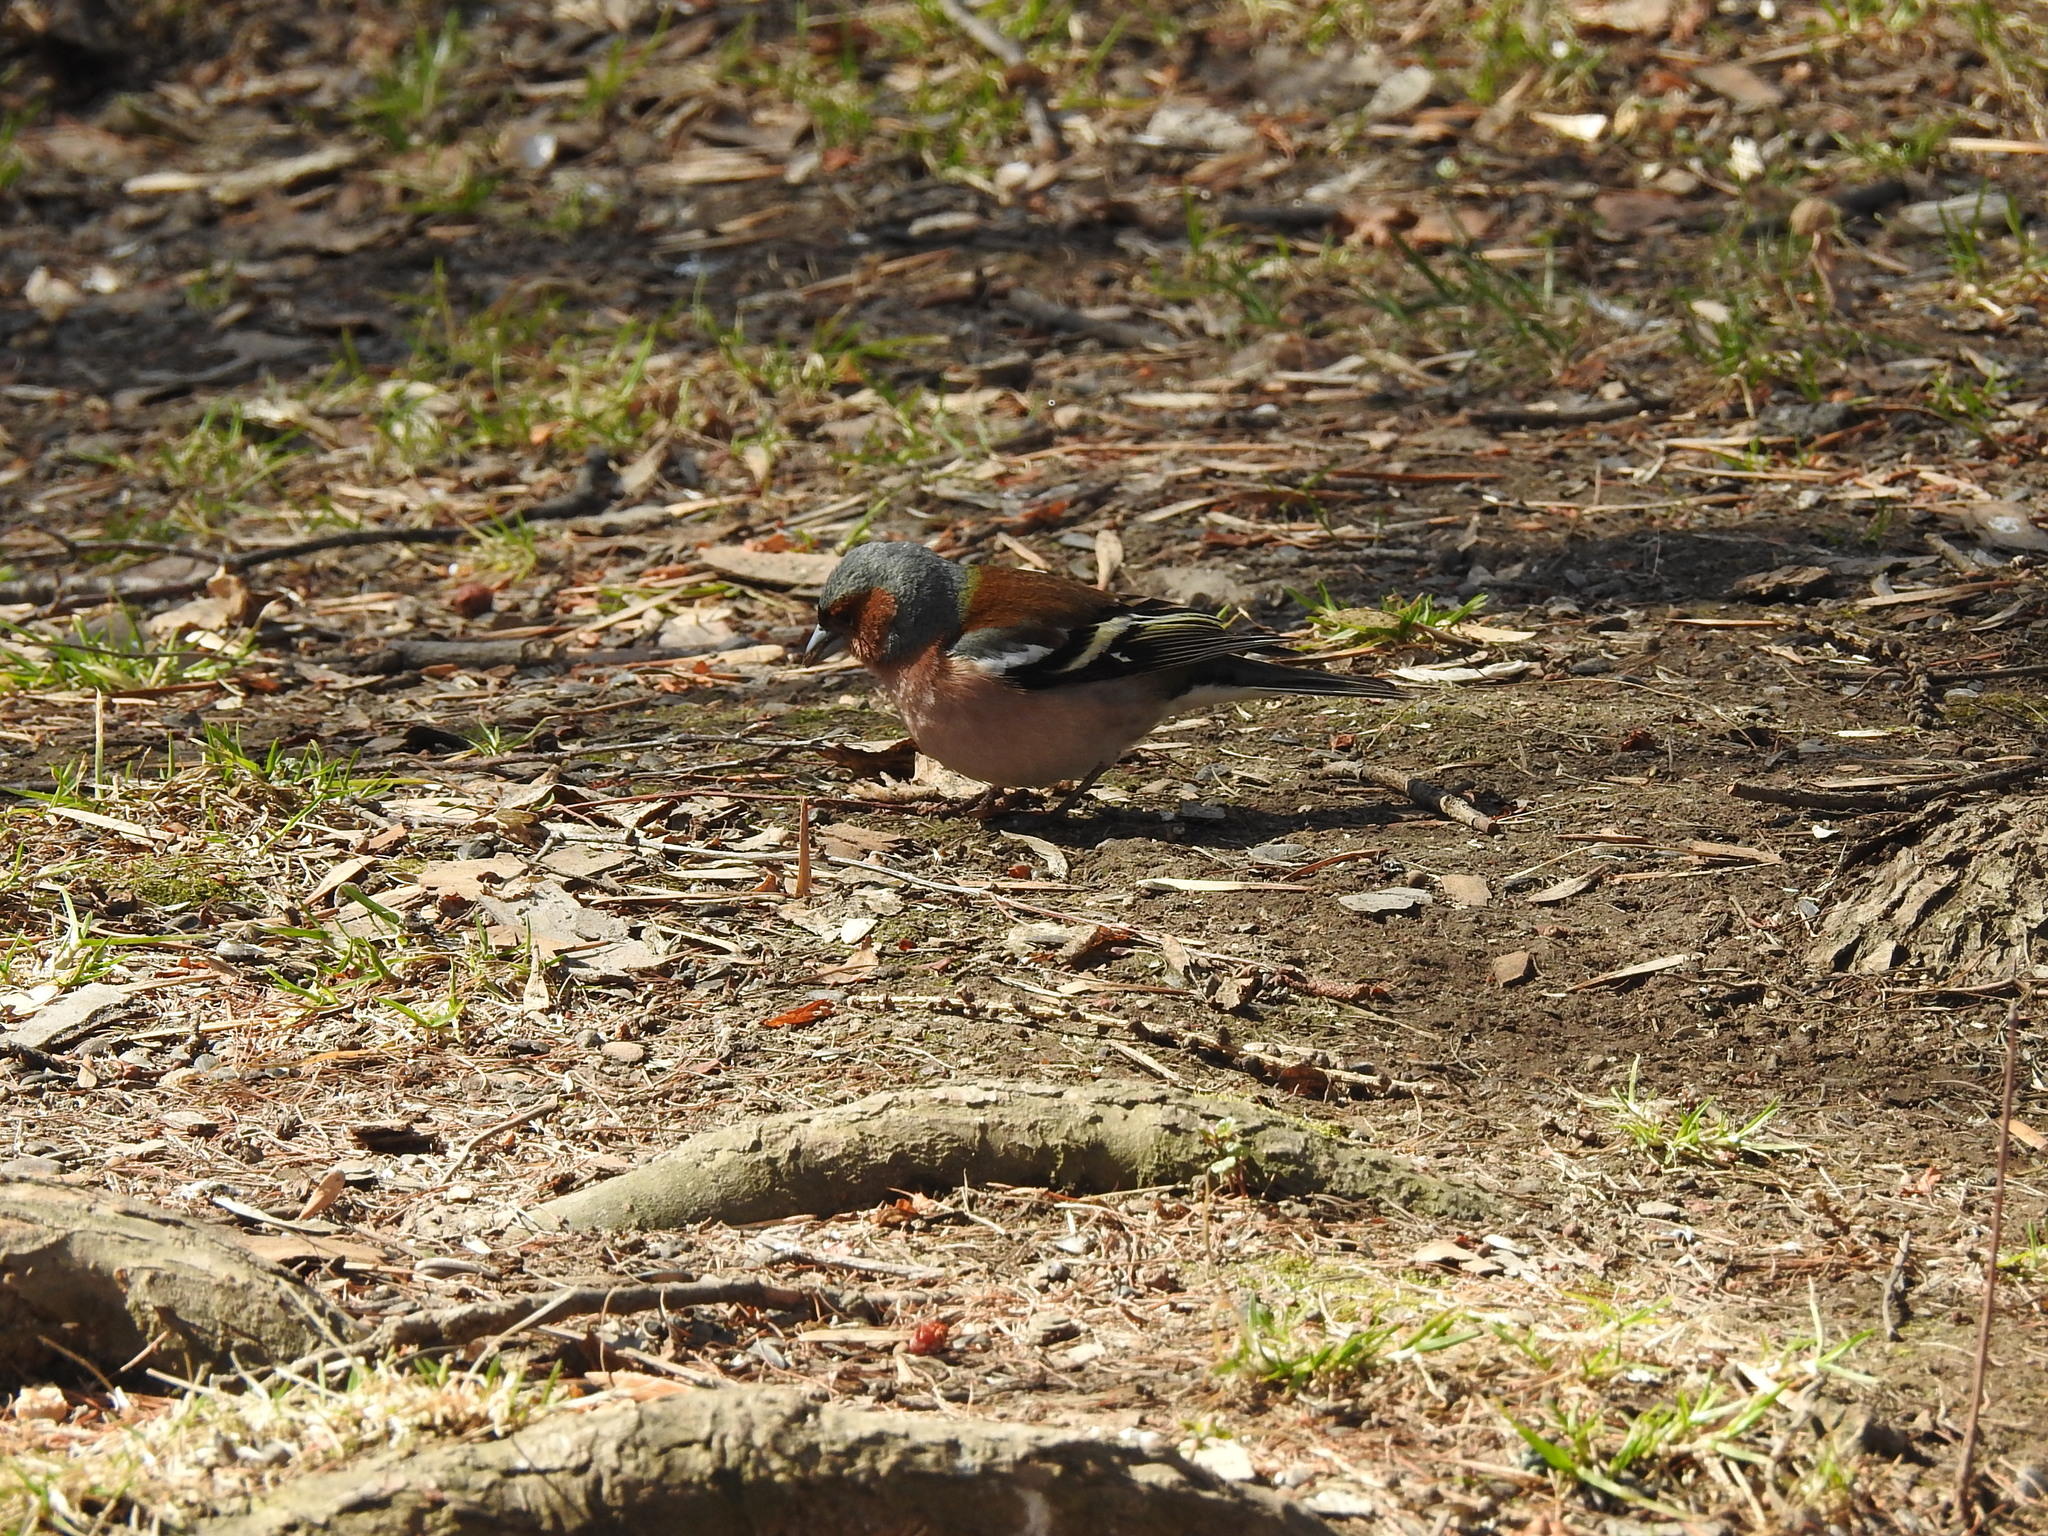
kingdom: Animalia
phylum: Chordata
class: Aves
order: Passeriformes
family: Fringillidae
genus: Fringilla
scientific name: Fringilla coelebs
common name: Common chaffinch
